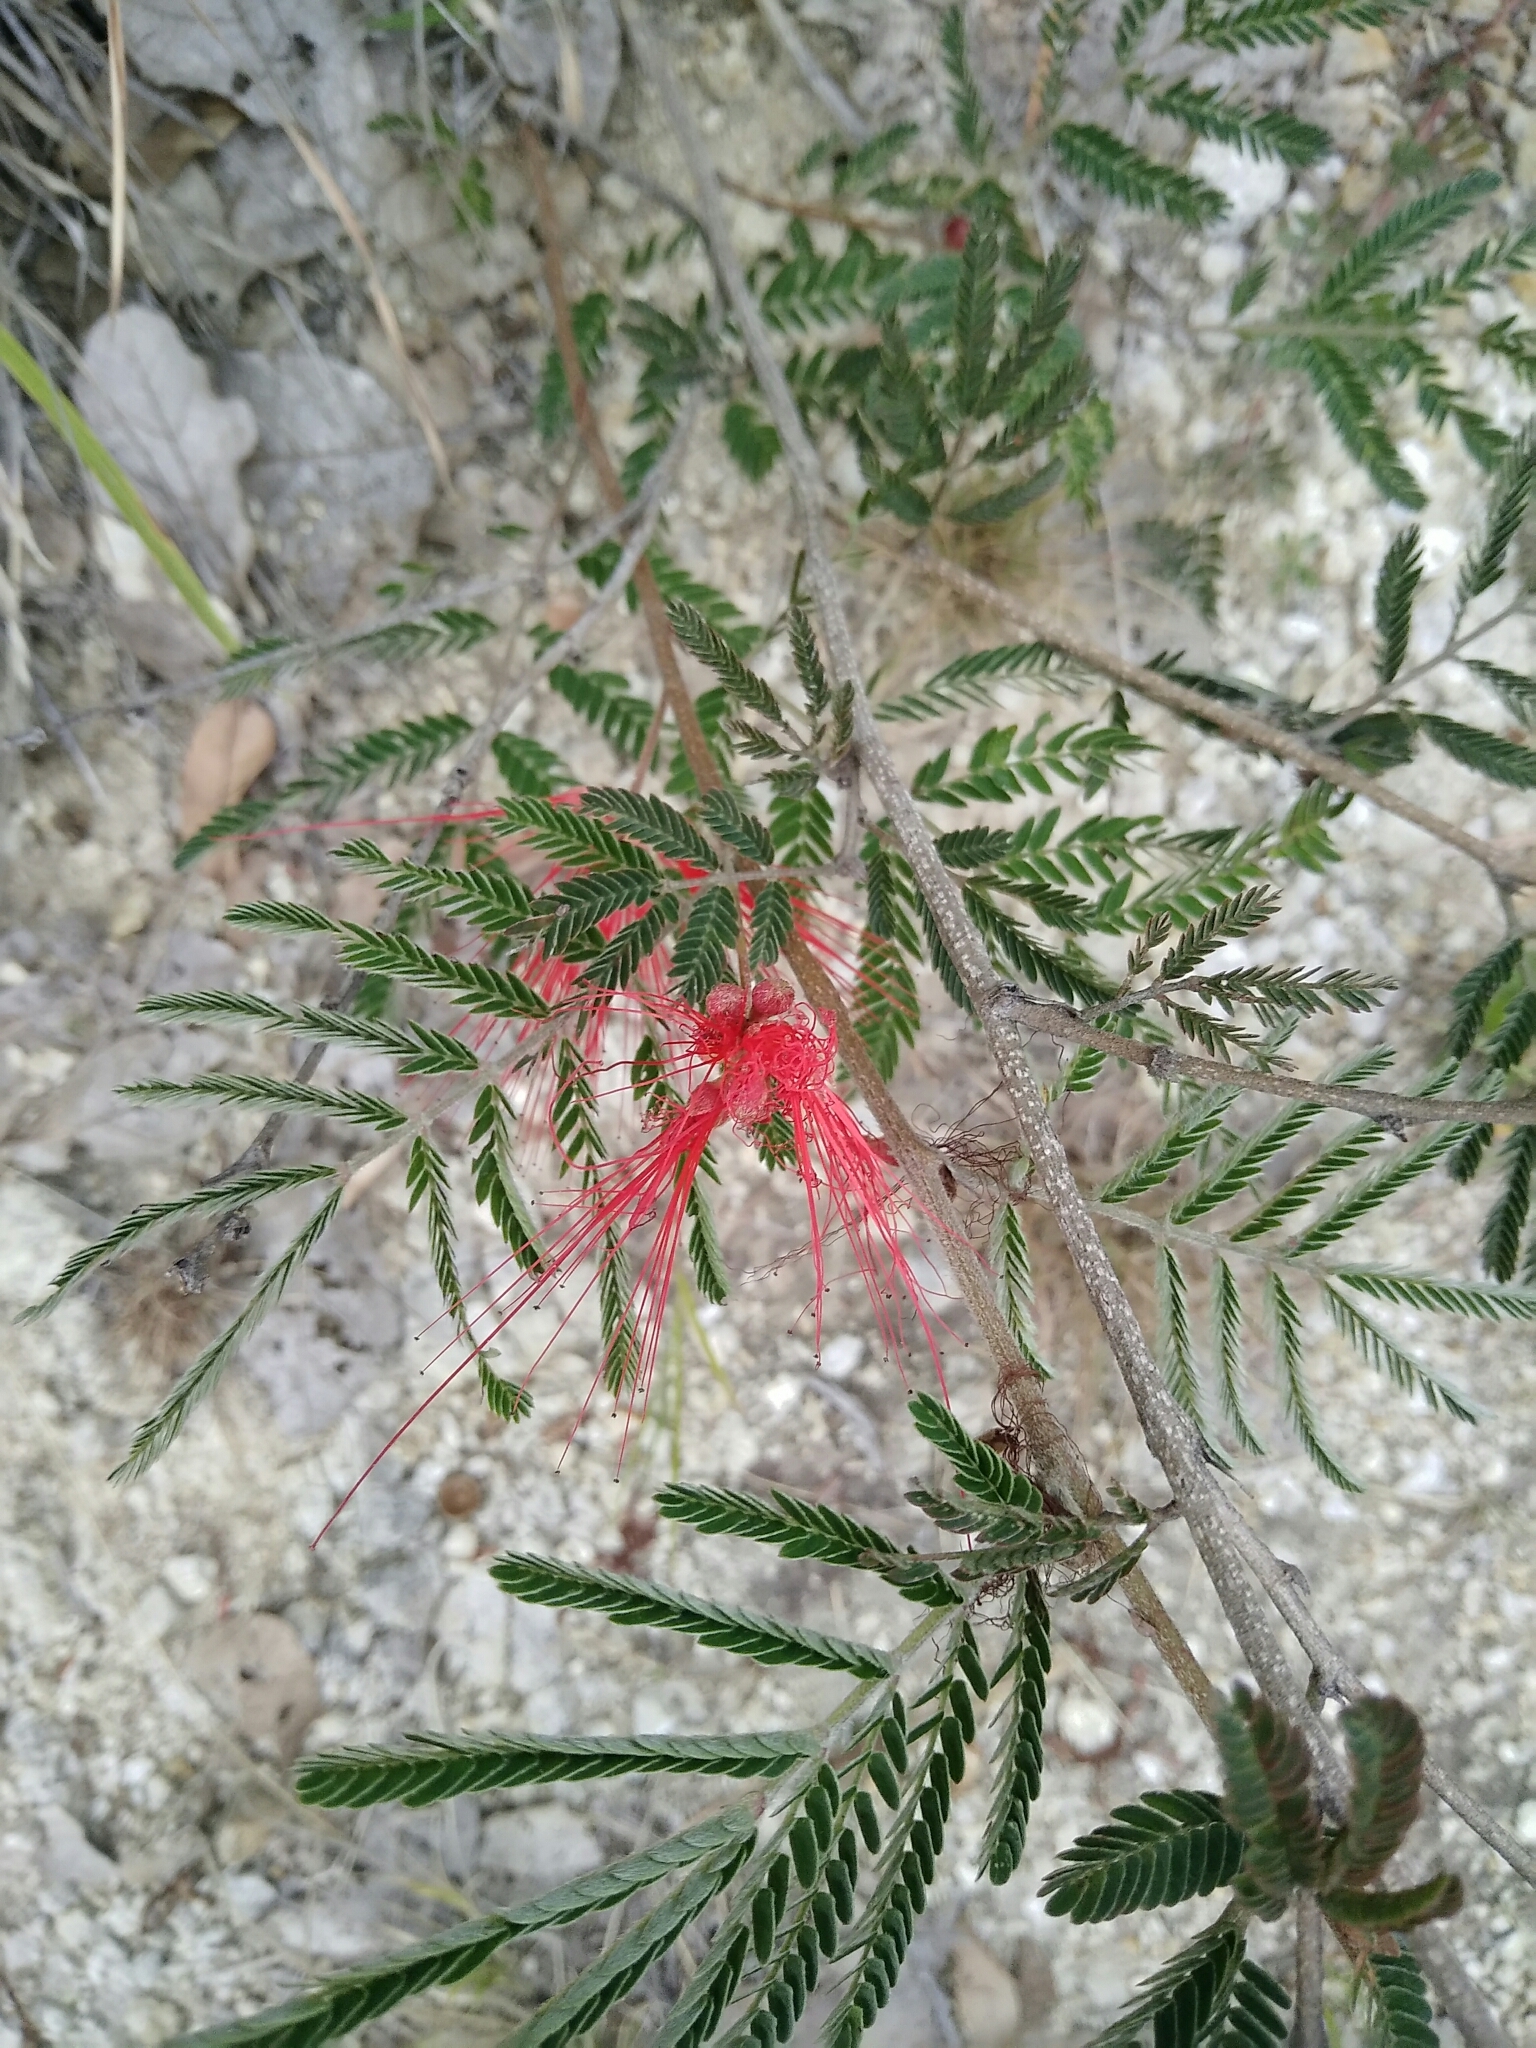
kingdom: Plantae
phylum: Tracheophyta
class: Magnoliopsida
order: Fabales
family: Fabaceae
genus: Calliandra
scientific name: Calliandra houstoniana
